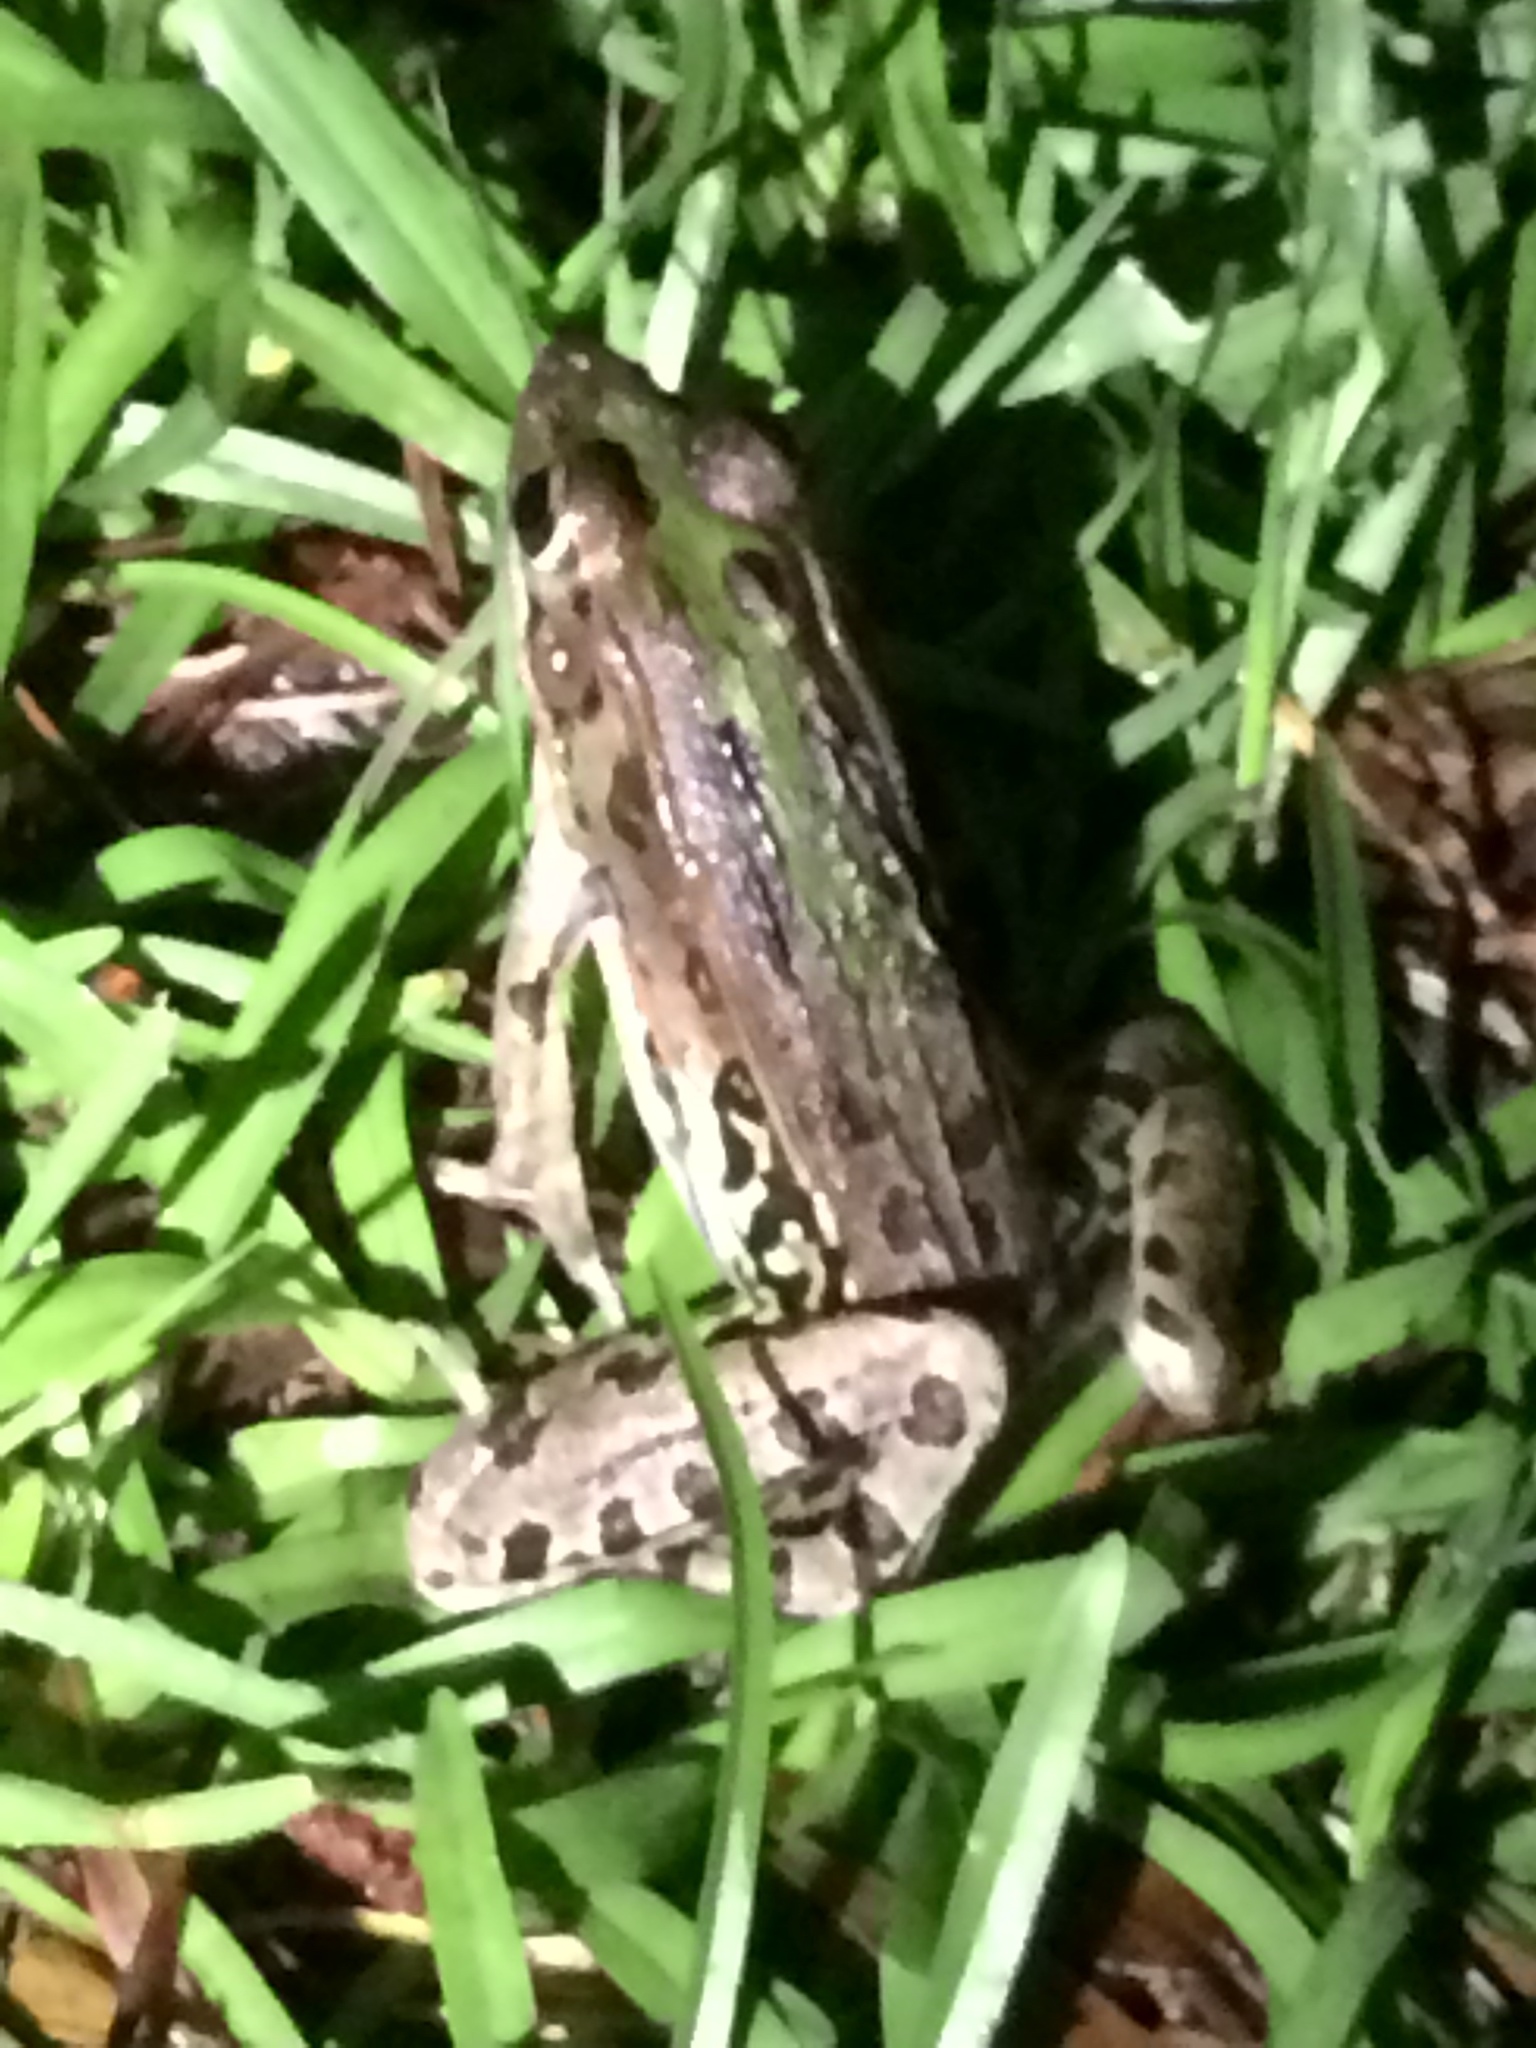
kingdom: Animalia
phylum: Chordata
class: Amphibia
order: Anura
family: Ranidae
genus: Lithobates
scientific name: Lithobates sphenocephalus
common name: Southern leopard frog
